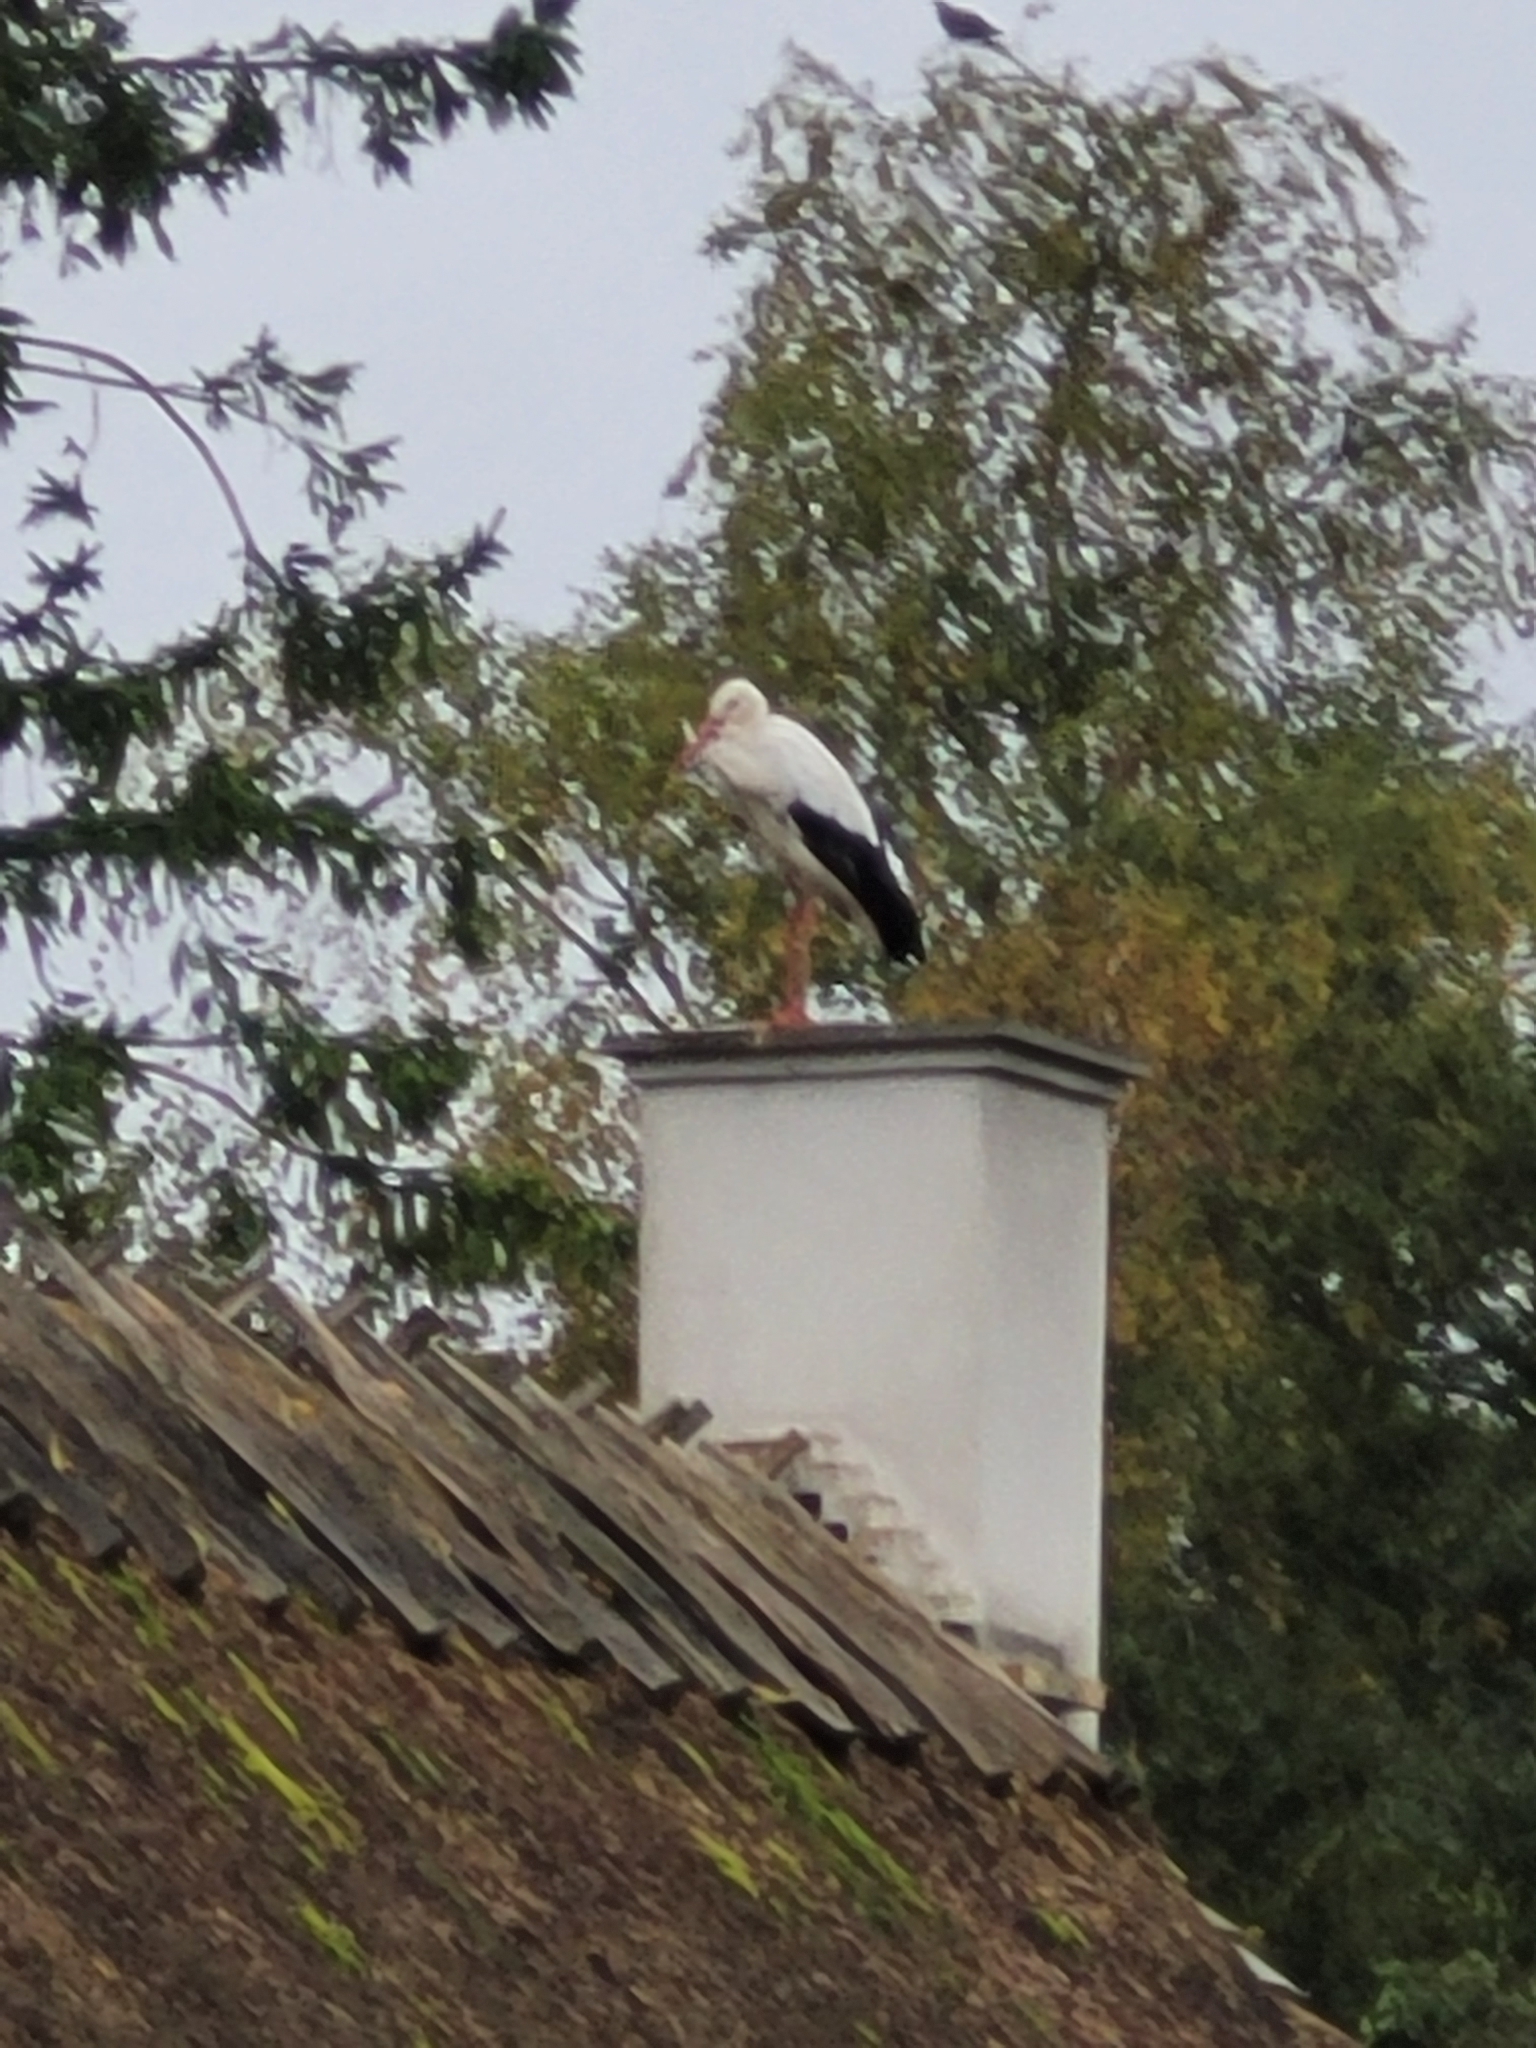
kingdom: Animalia
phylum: Chordata
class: Aves
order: Ciconiiformes
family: Ciconiidae
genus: Ciconia
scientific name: Ciconia ciconia
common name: White stork
